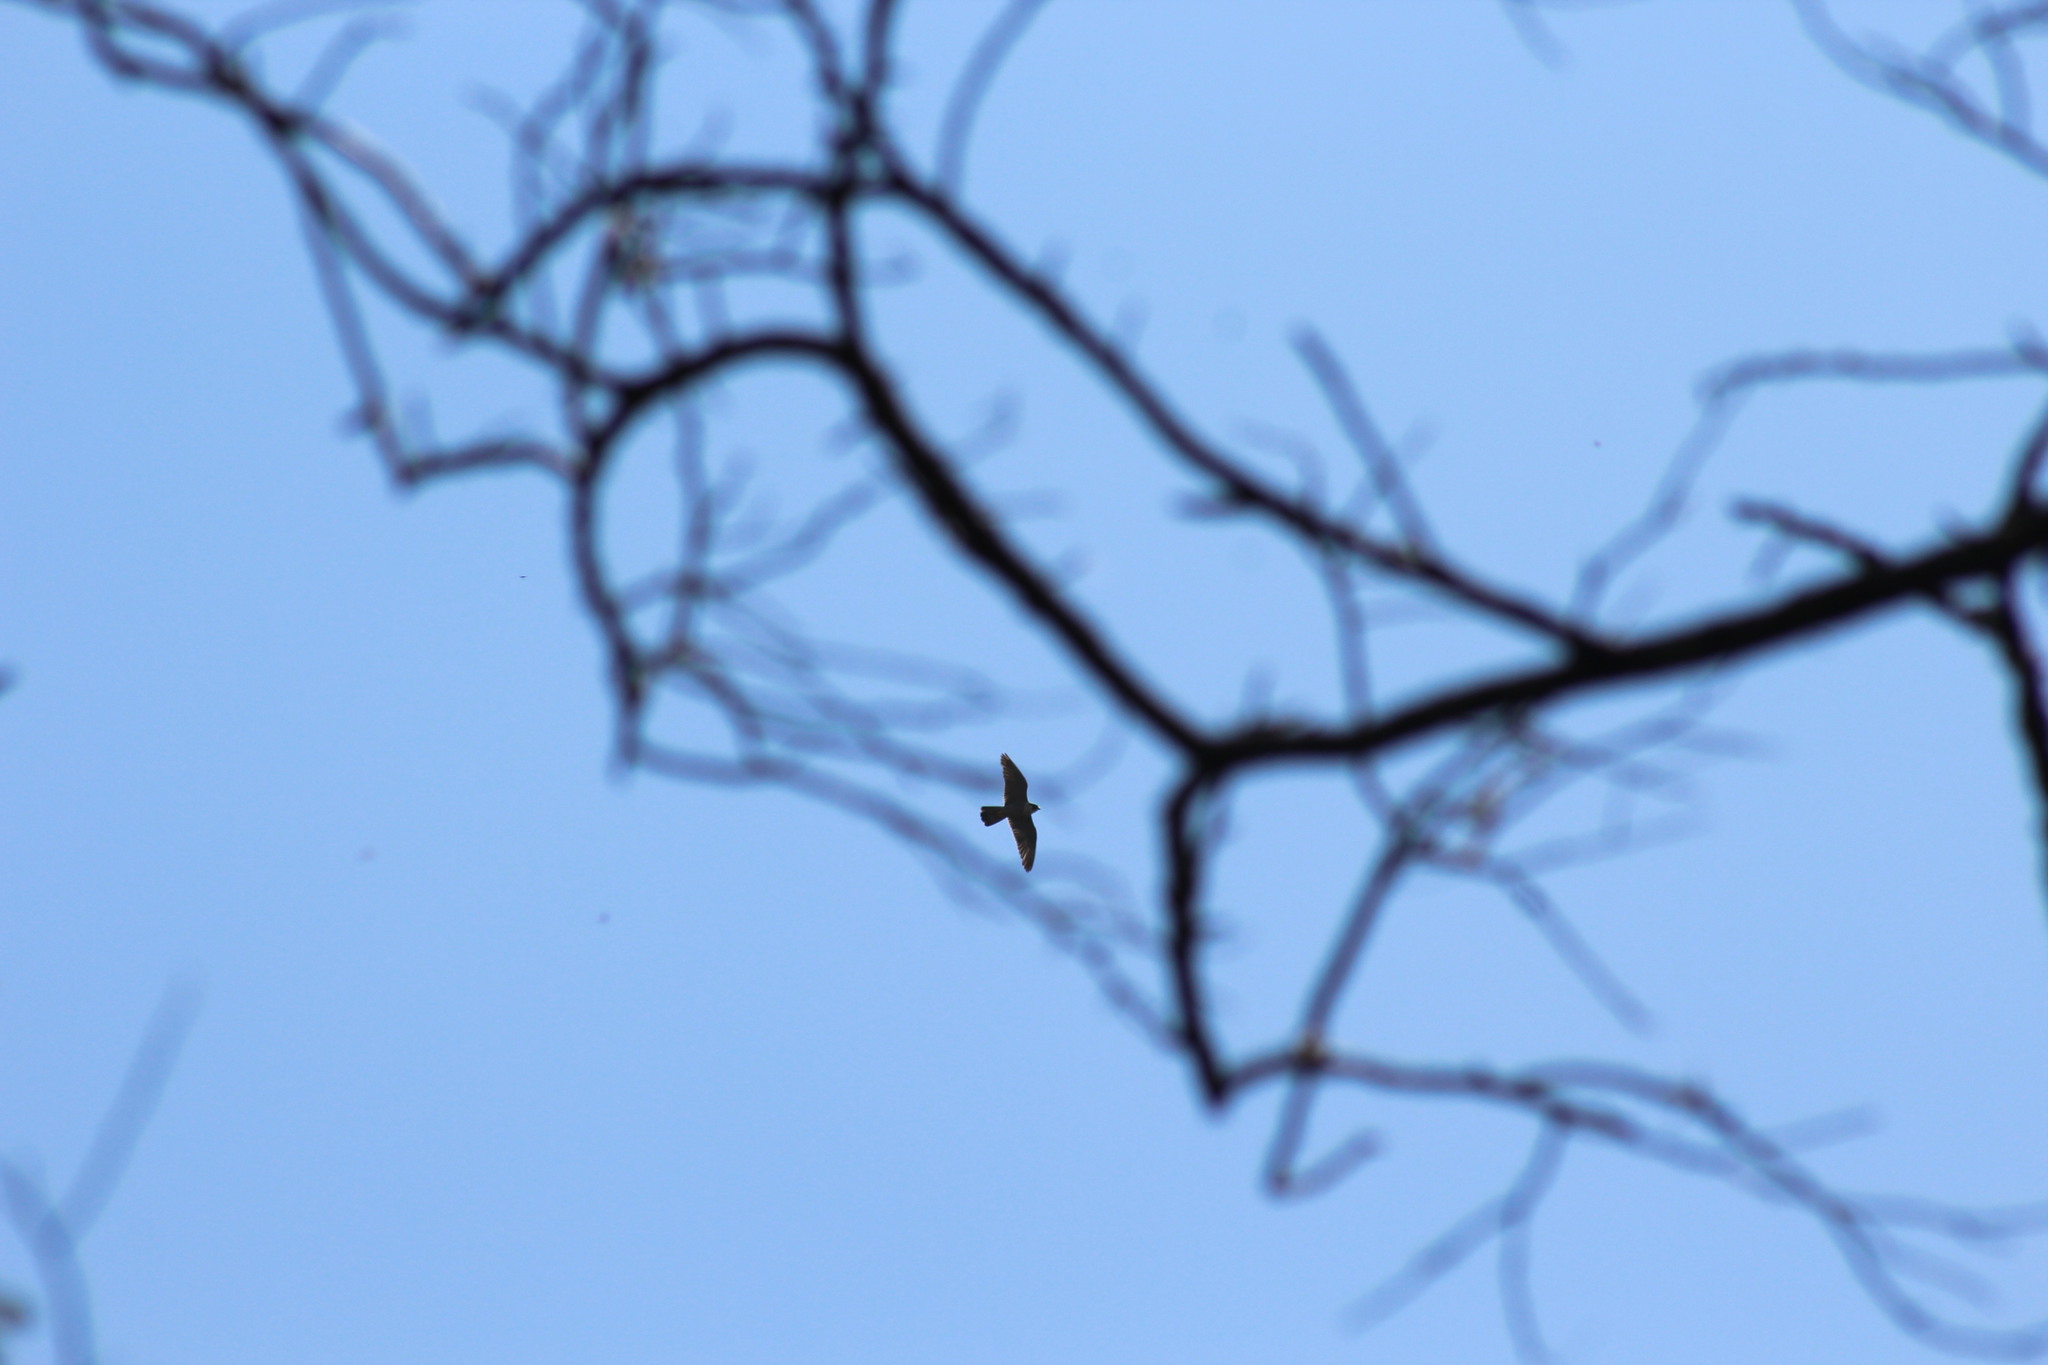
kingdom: Animalia
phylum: Chordata
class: Aves
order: Falconiformes
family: Falconidae
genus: Falco
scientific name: Falco peregrinus
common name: Peregrine falcon
